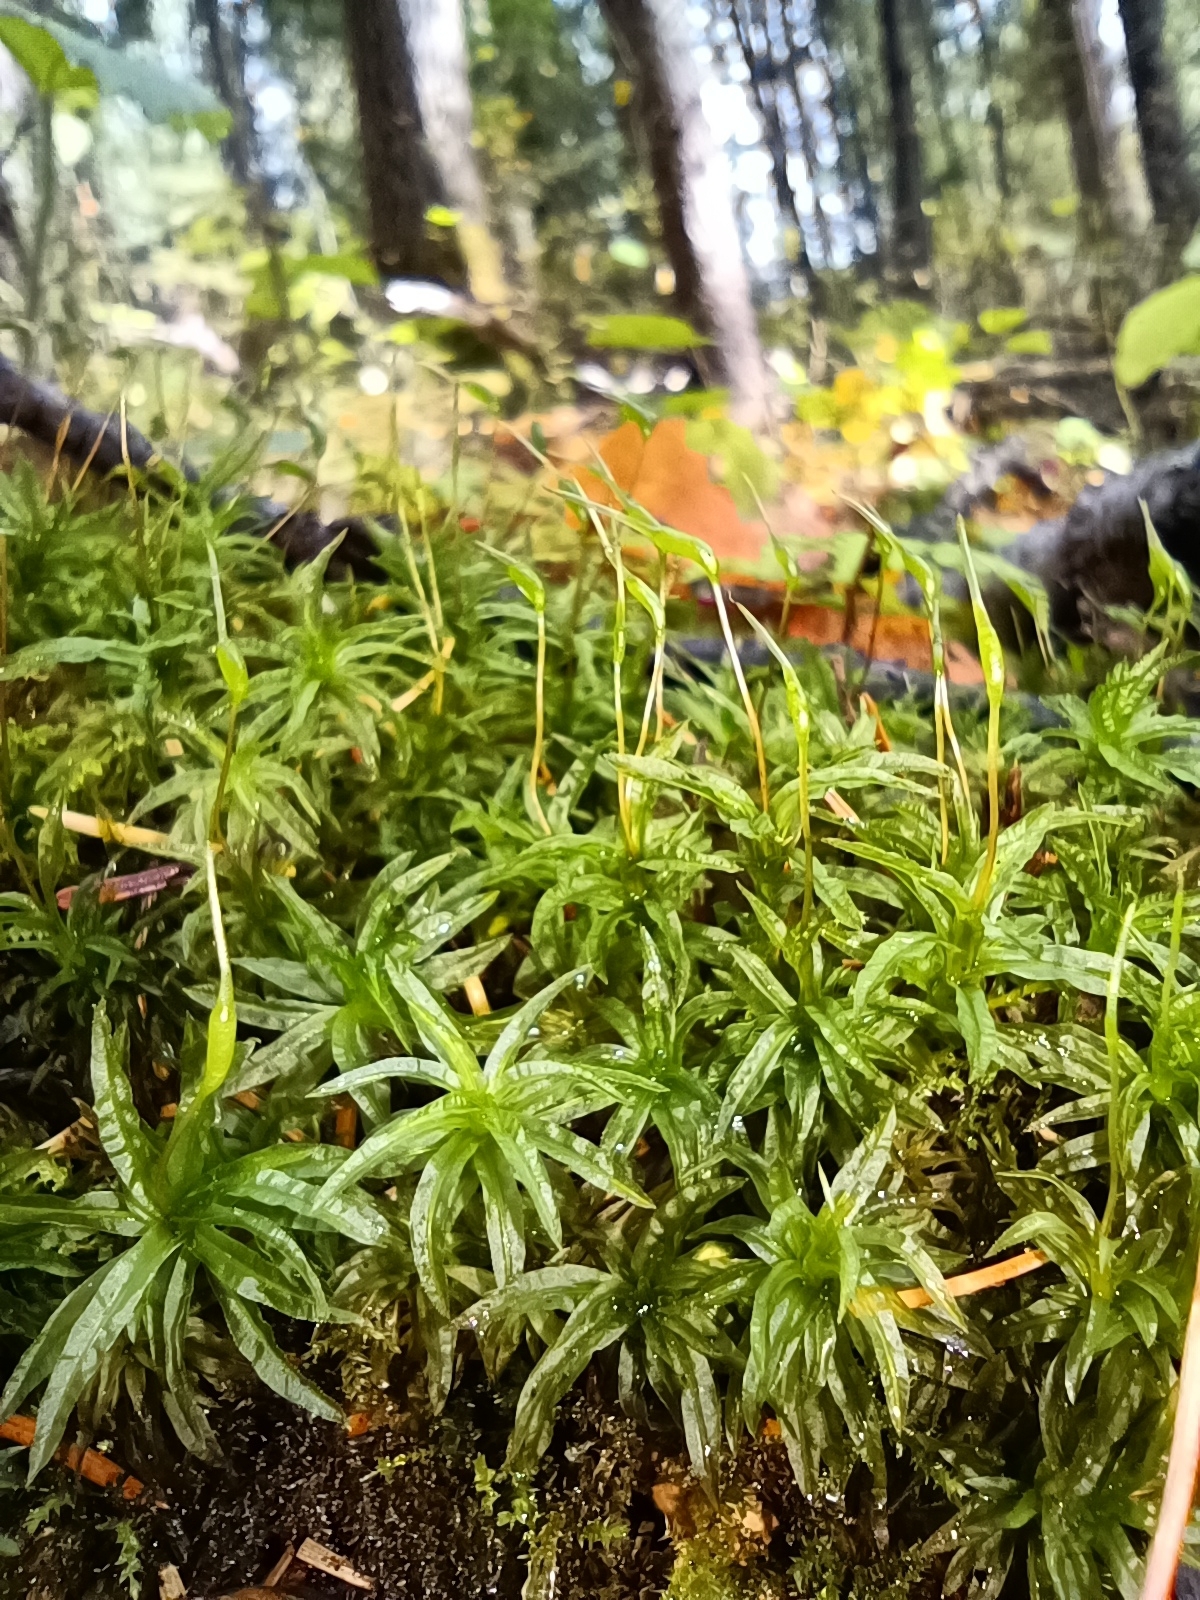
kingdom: Plantae
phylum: Bryophyta
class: Polytrichopsida
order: Polytrichales
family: Polytrichaceae
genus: Atrichum
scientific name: Atrichum undulatum
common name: Common smoothcap
